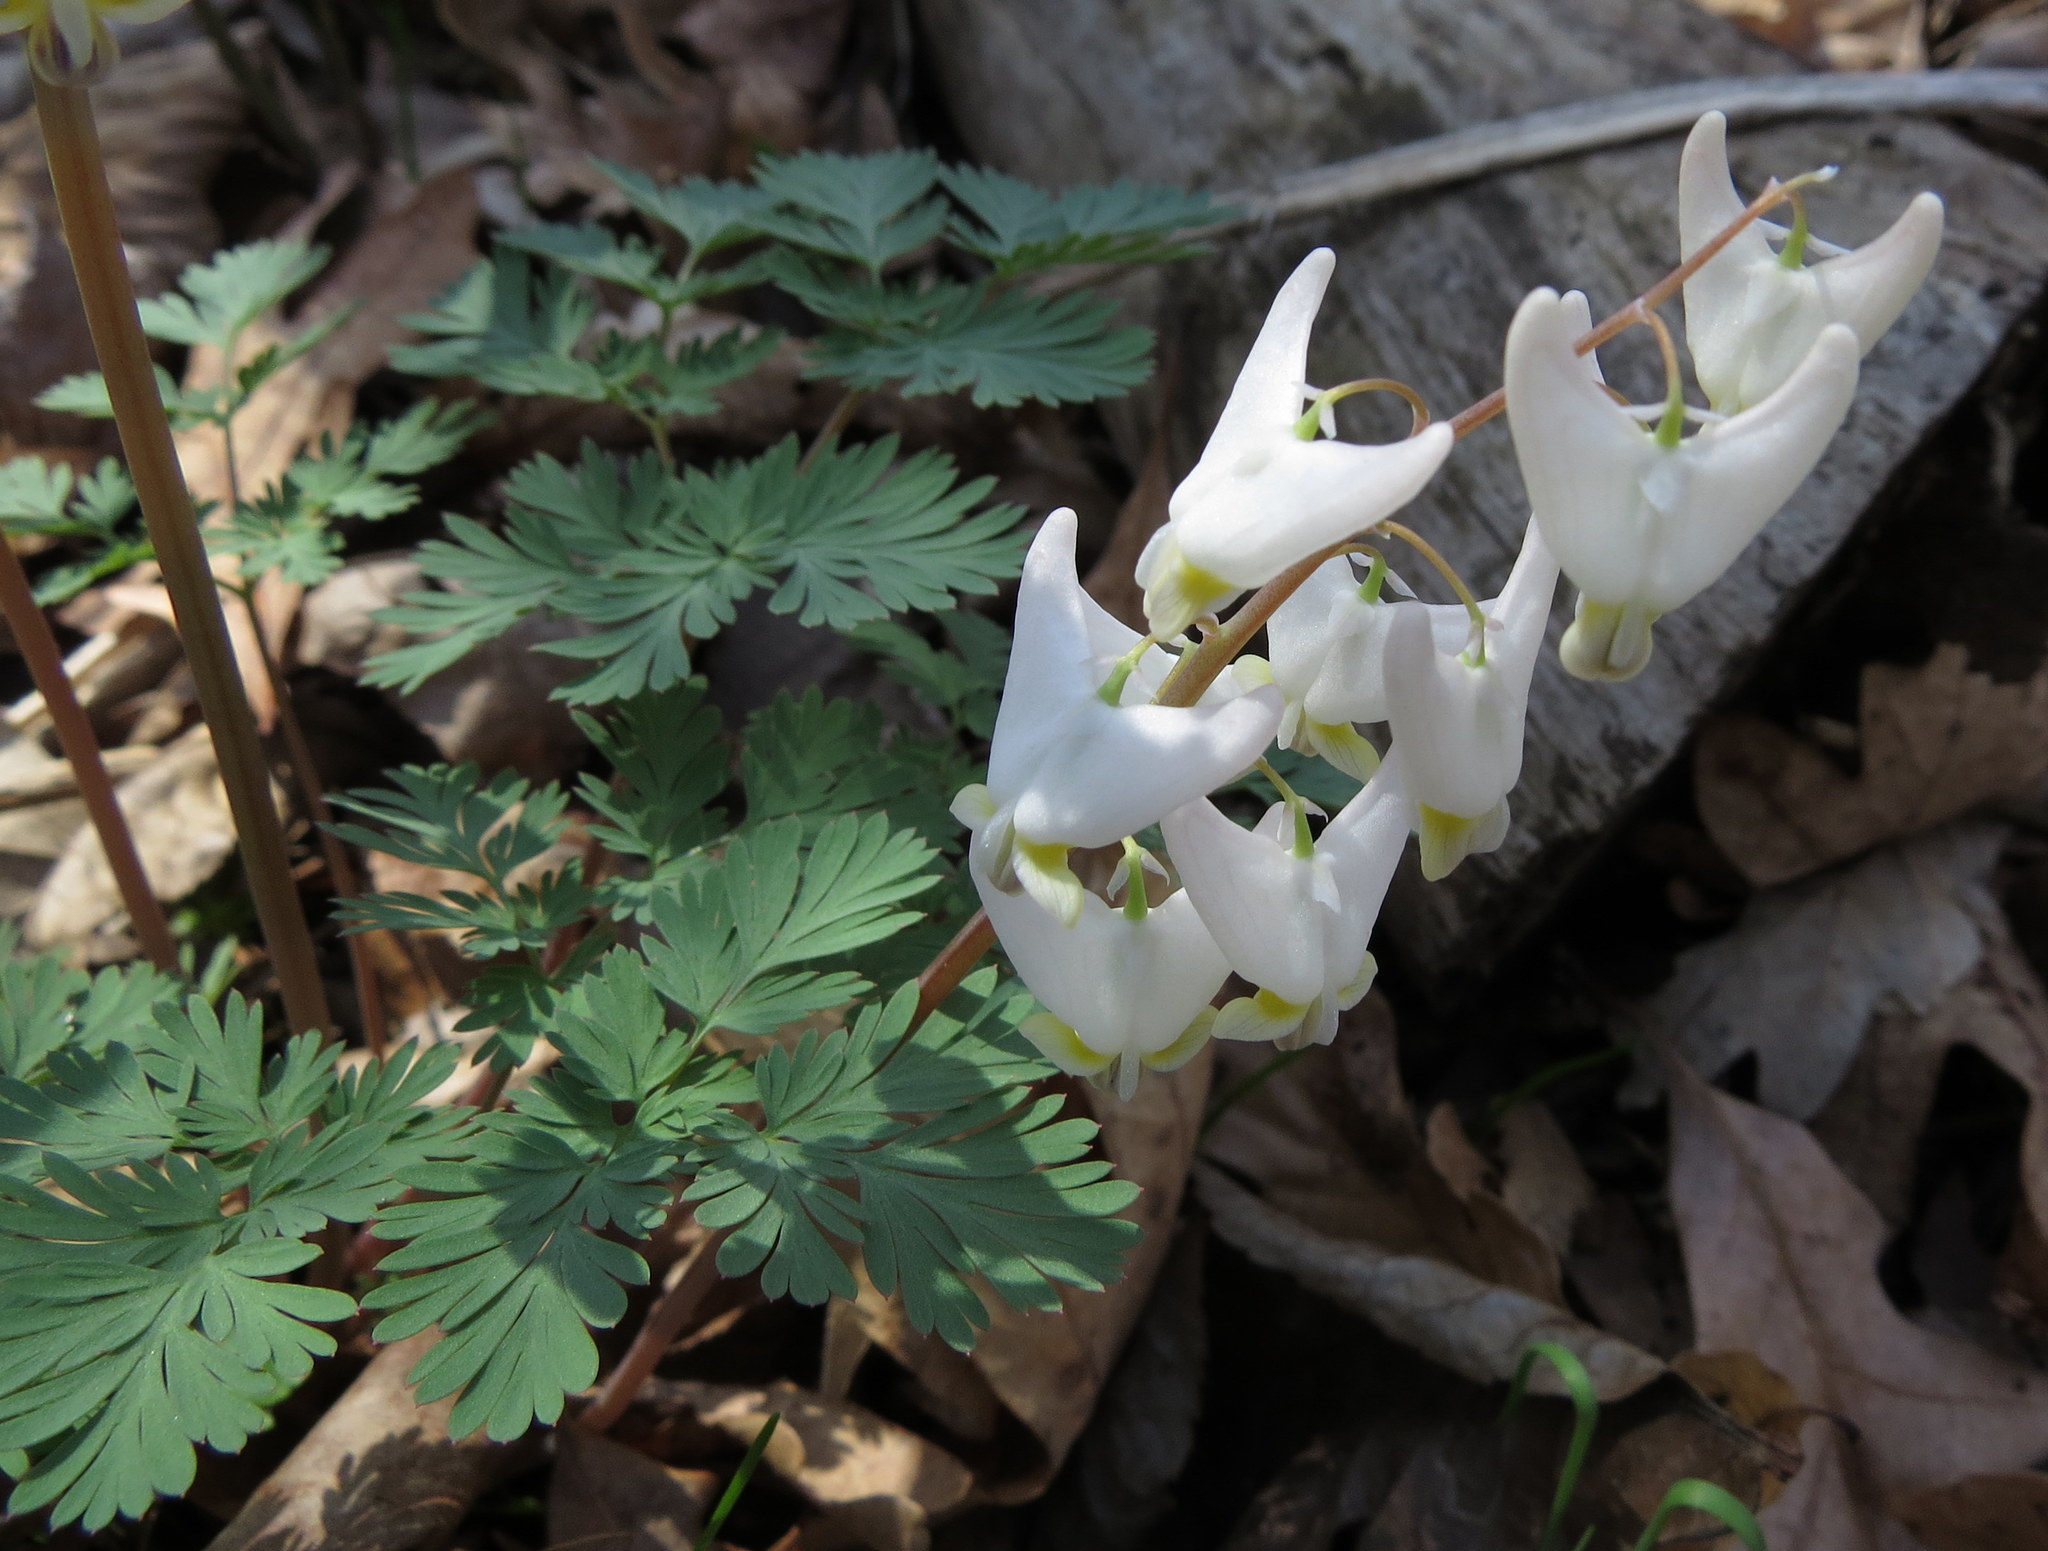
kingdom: Plantae
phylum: Tracheophyta
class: Magnoliopsida
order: Ranunculales
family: Papaveraceae
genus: Dicentra
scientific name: Dicentra cucullaria
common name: Dutchman's breeches
